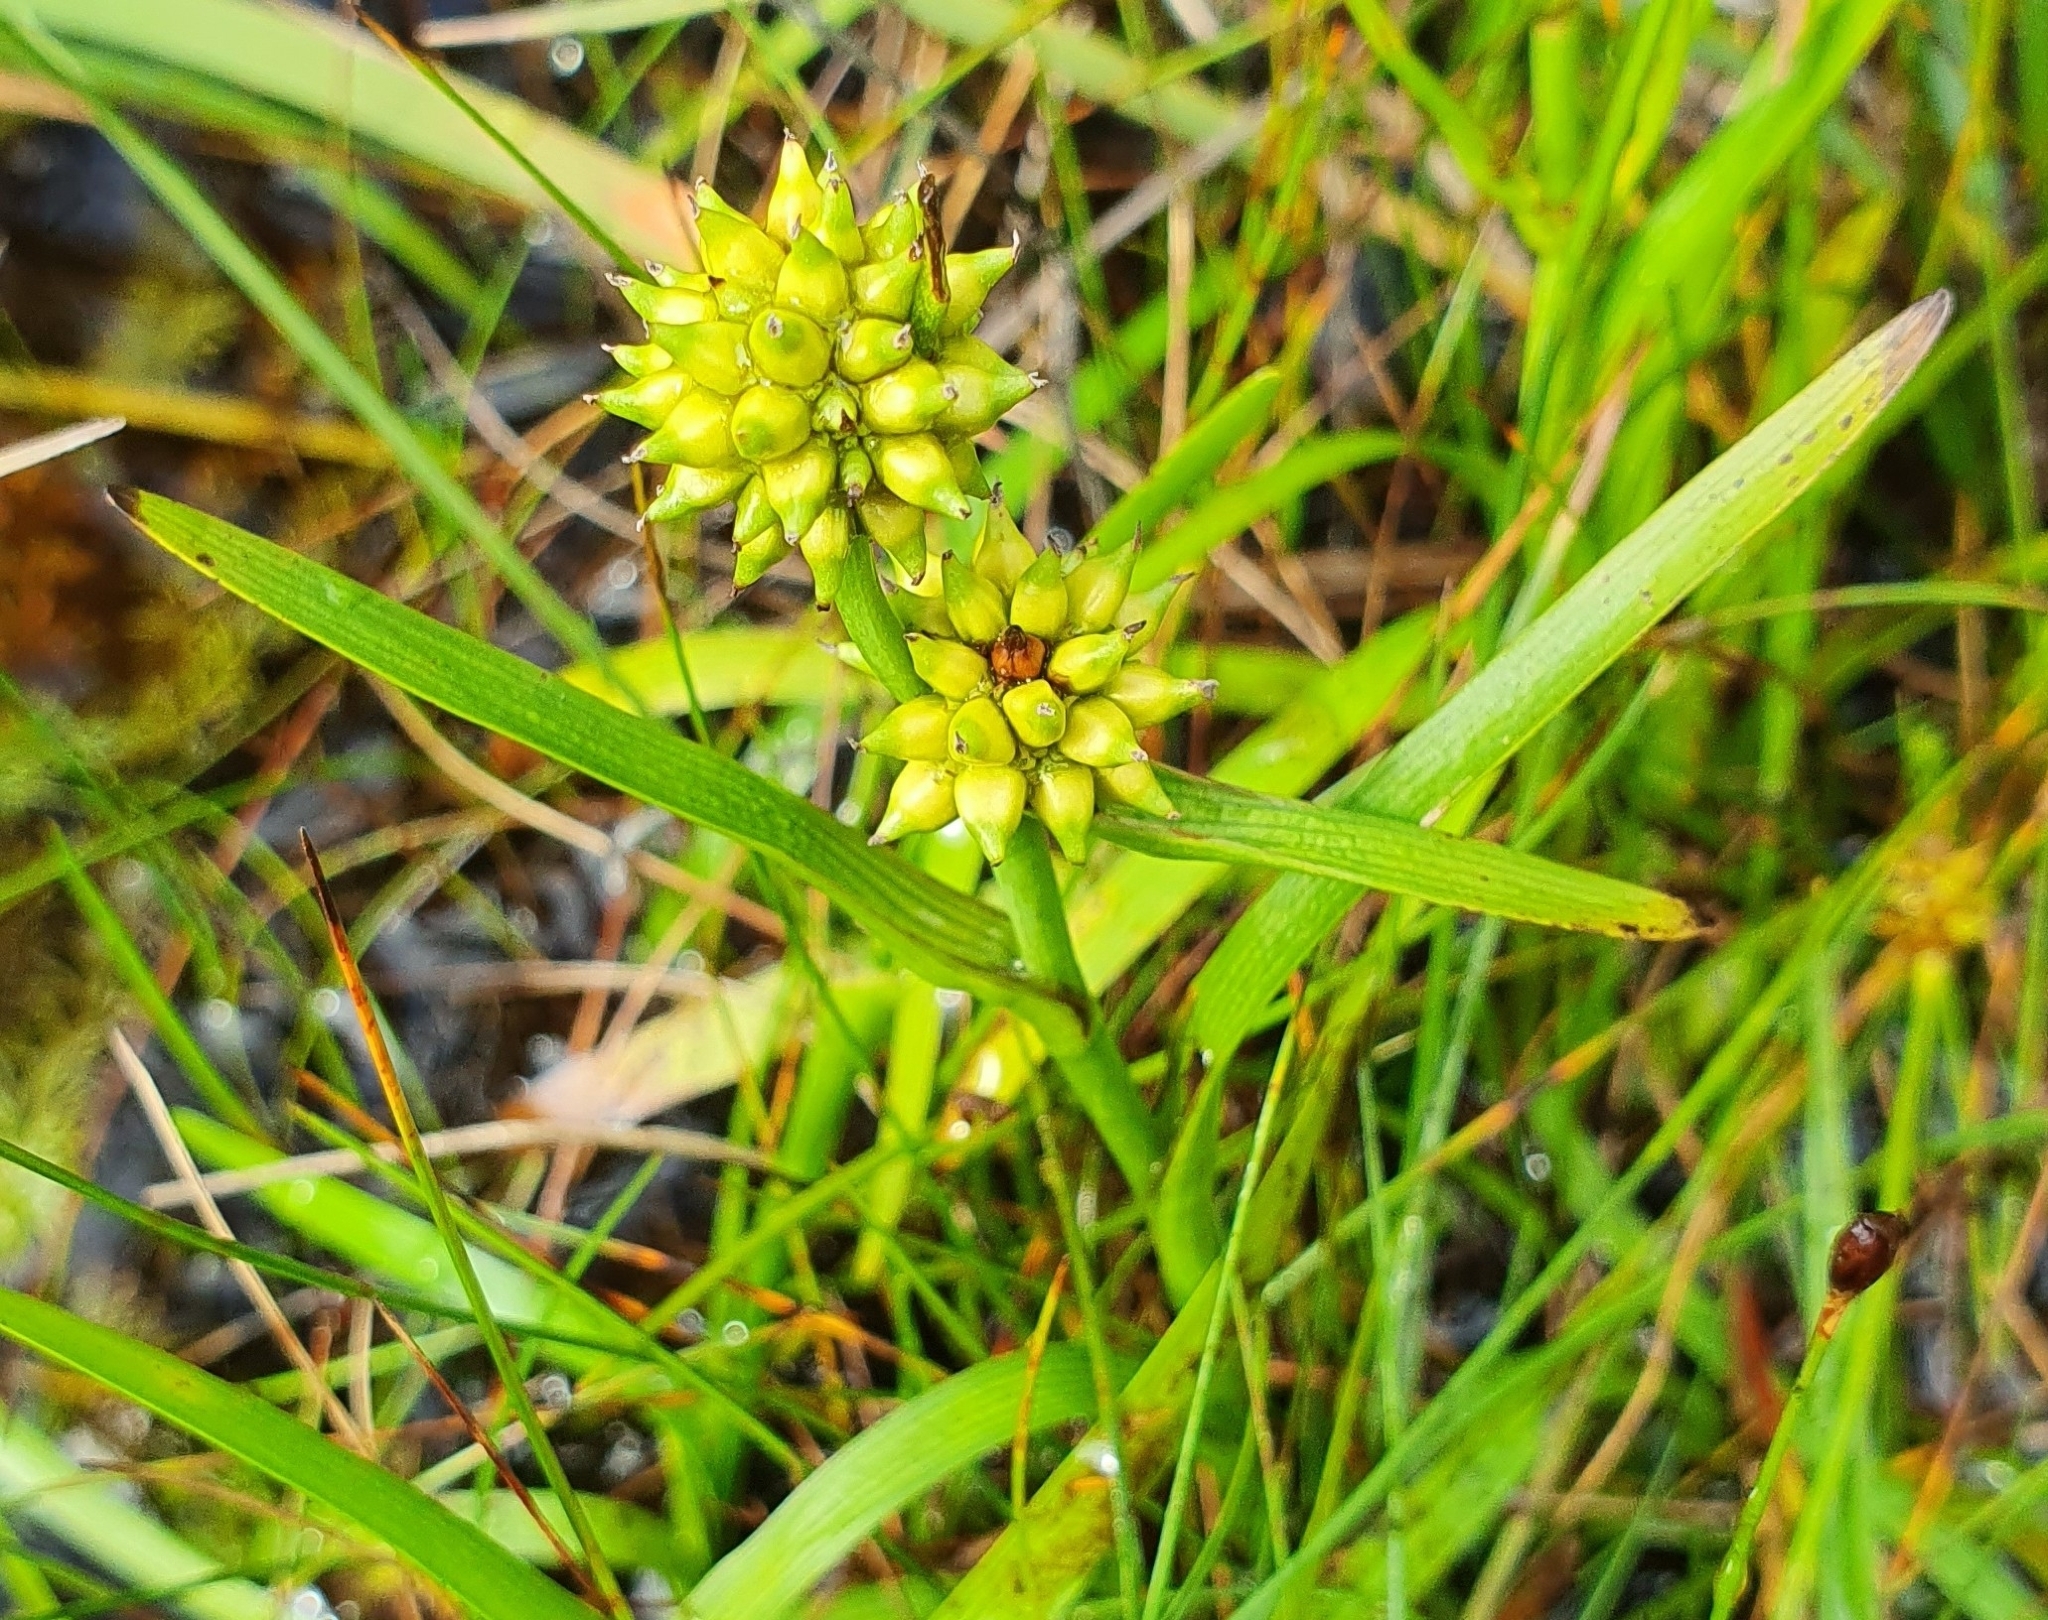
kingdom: Plantae
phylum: Tracheophyta
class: Liliopsida
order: Poales
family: Typhaceae
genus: Sparganium
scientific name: Sparganium natans
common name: Least bur-reed
